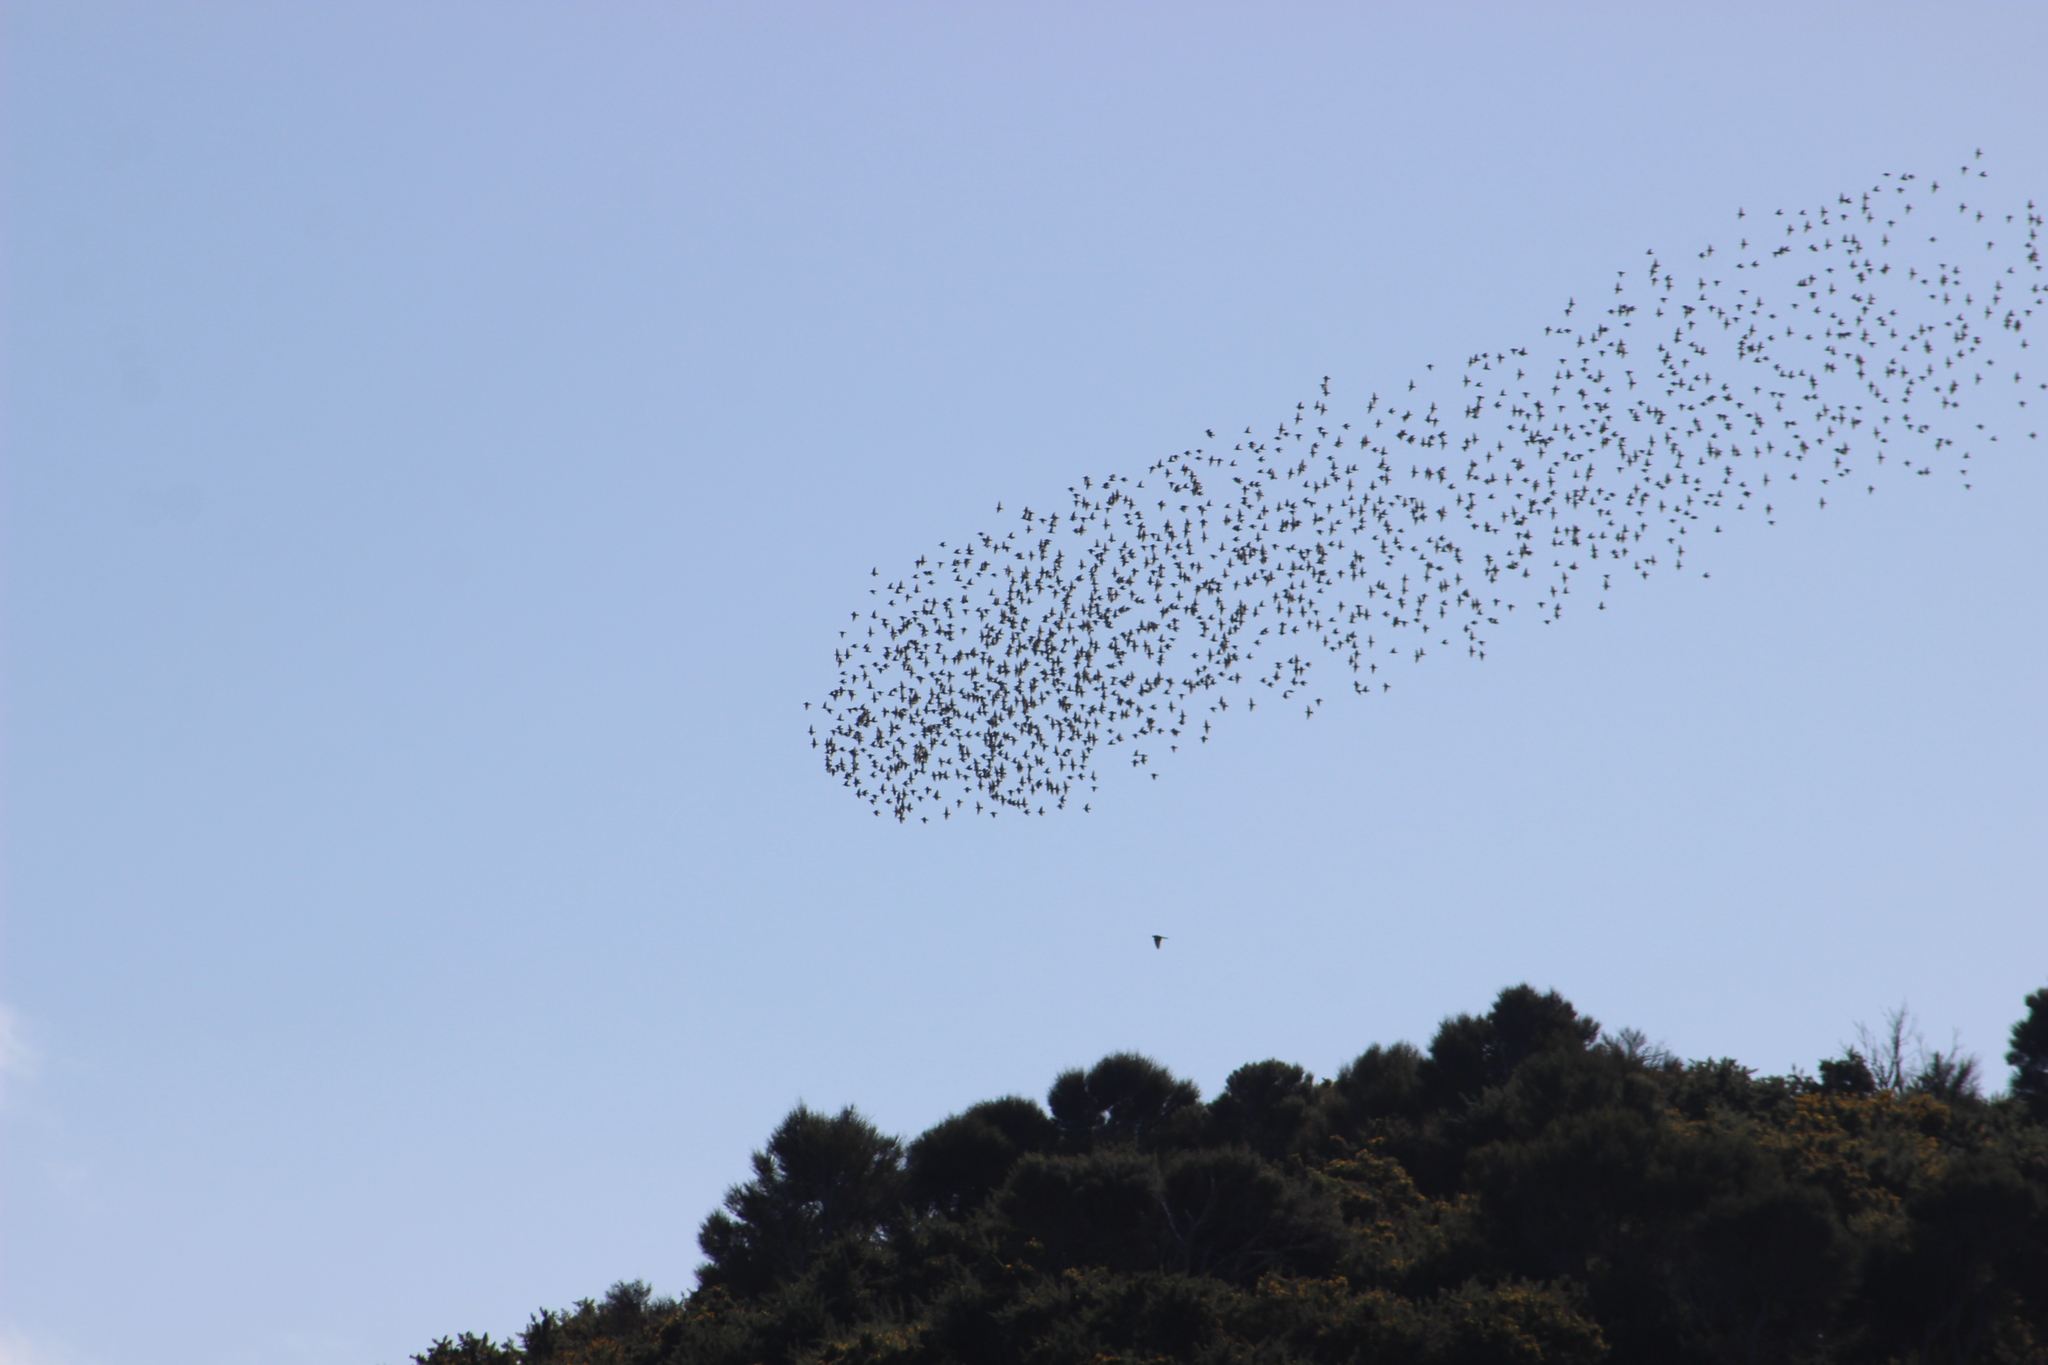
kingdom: Animalia
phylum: Chordata
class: Aves
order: Passeriformes
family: Sturnidae
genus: Sturnus
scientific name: Sturnus vulgaris
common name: Common starling
